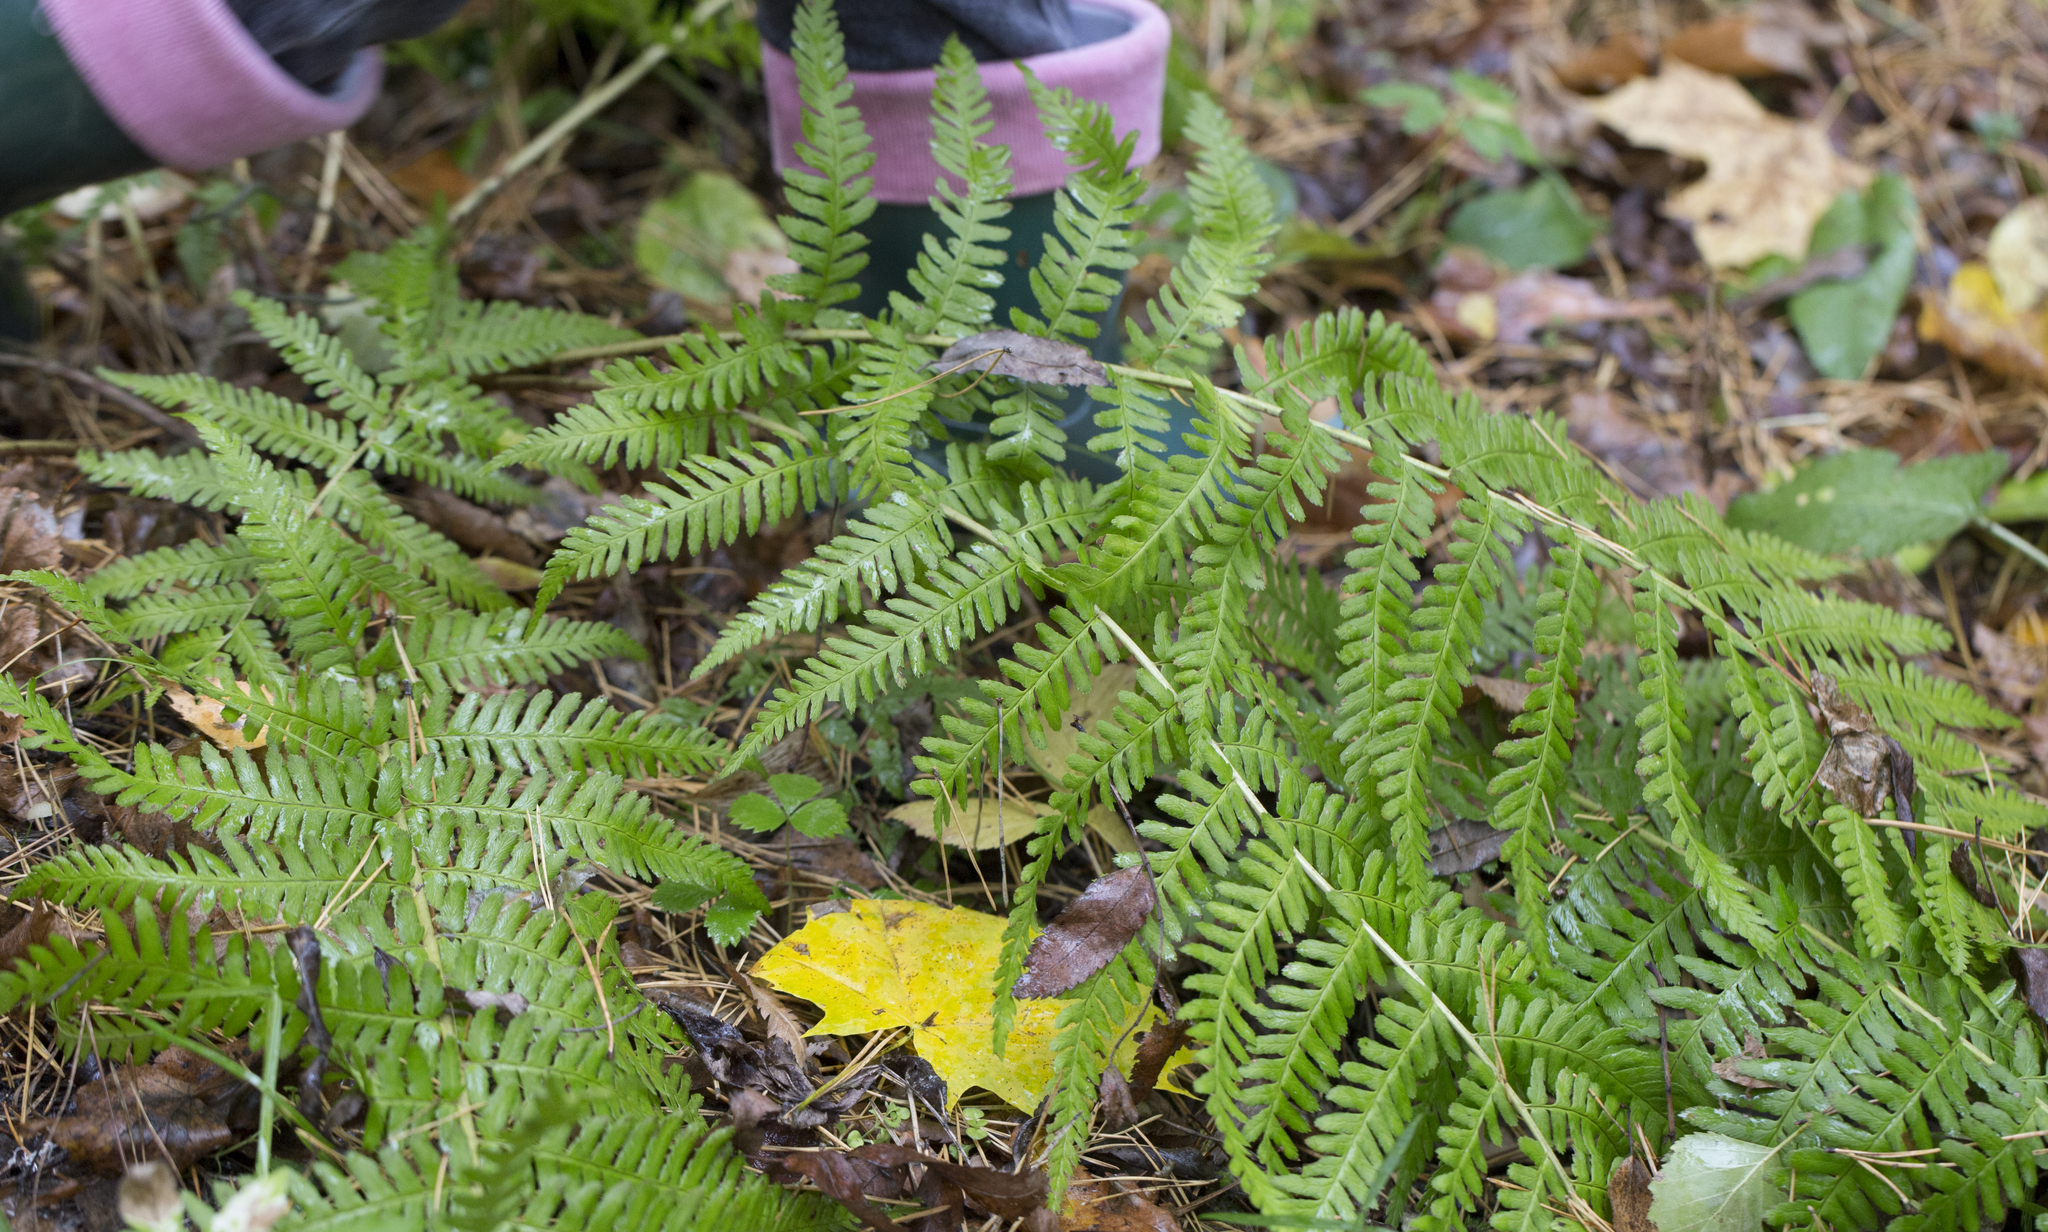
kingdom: Plantae
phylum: Tracheophyta
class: Polypodiopsida
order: Polypodiales
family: Dryopteridaceae
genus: Dryopteris
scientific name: Dryopteris filix-mas
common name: Male fern
